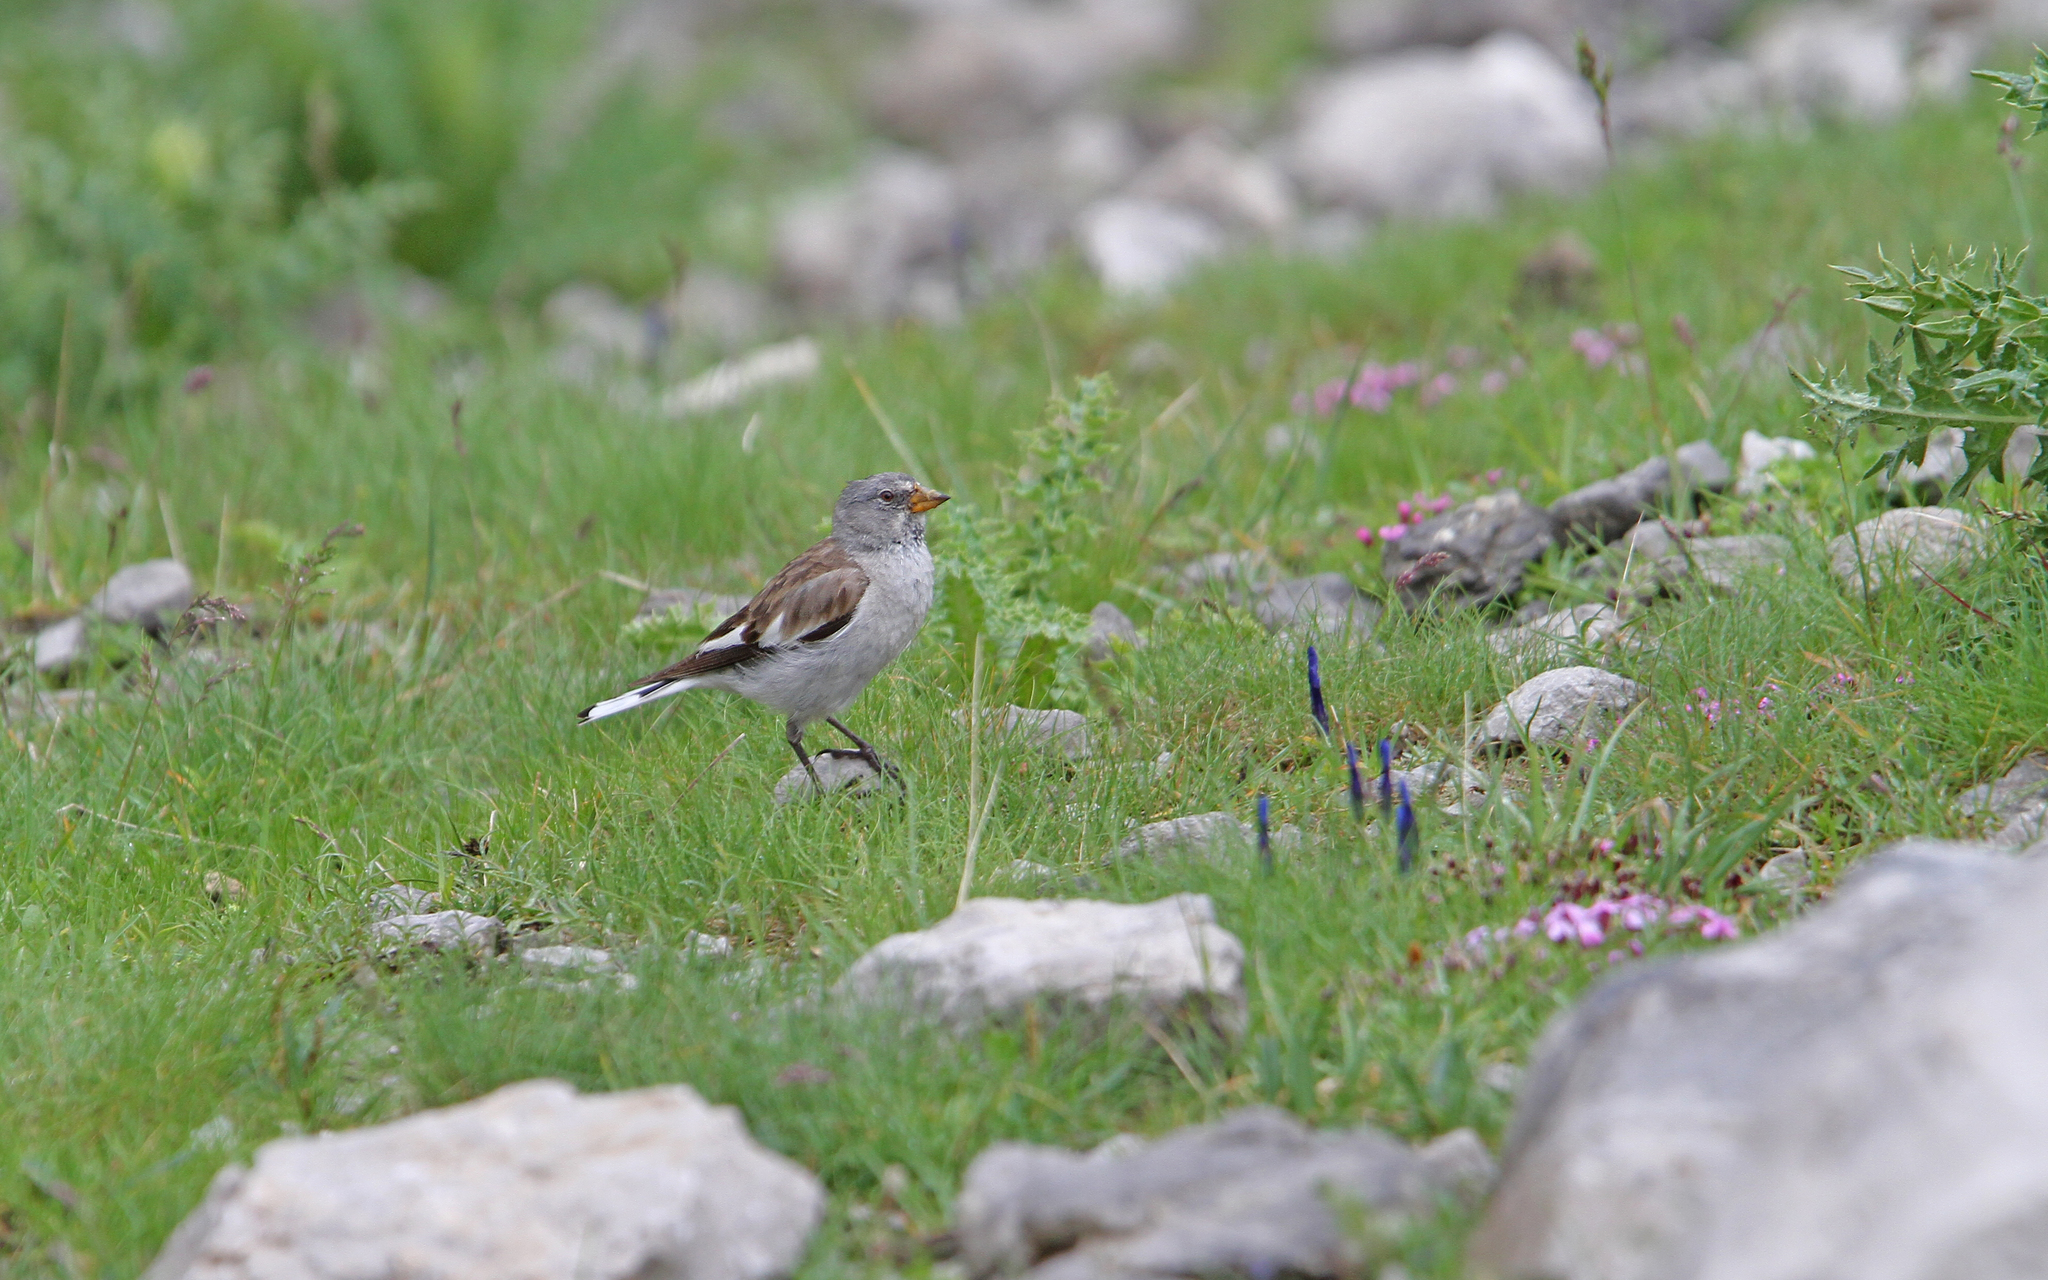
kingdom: Animalia
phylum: Chordata
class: Aves
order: Passeriformes
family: Passeridae
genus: Montifringilla
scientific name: Montifringilla nivalis
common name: White-winged snowfinch
